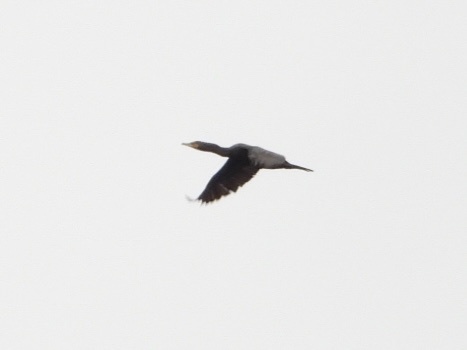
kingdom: Animalia
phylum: Chordata
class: Aves
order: Suliformes
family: Phalacrocoracidae
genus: Phalacrocorax
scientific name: Phalacrocorax auritus
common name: Double-crested cormorant
